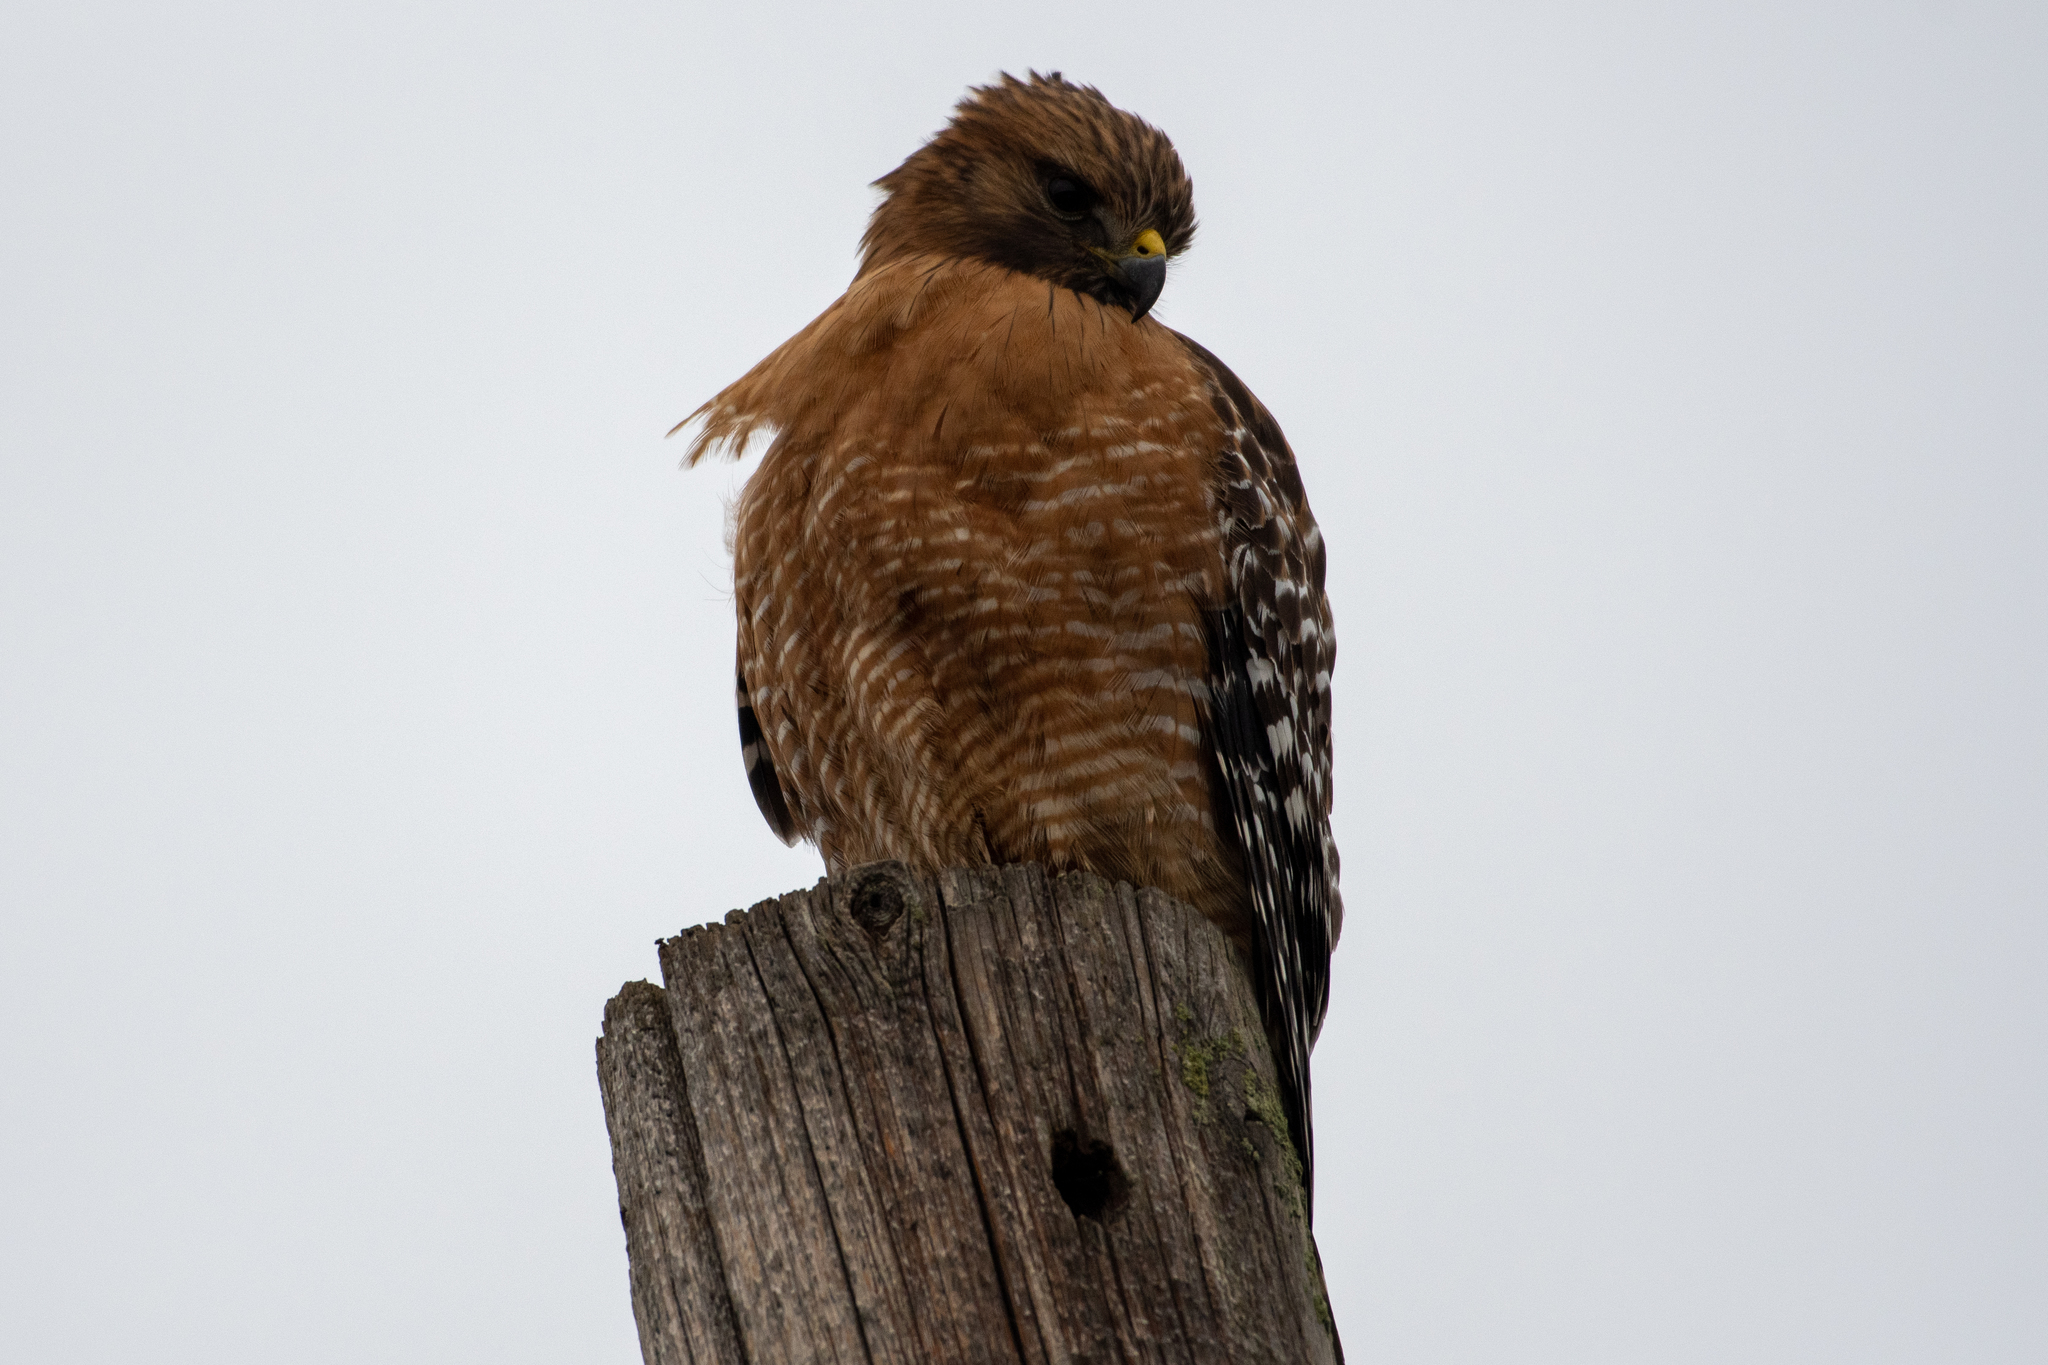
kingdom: Animalia
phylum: Chordata
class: Aves
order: Accipitriformes
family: Accipitridae
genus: Buteo
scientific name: Buteo lineatus
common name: Red-shouldered hawk
